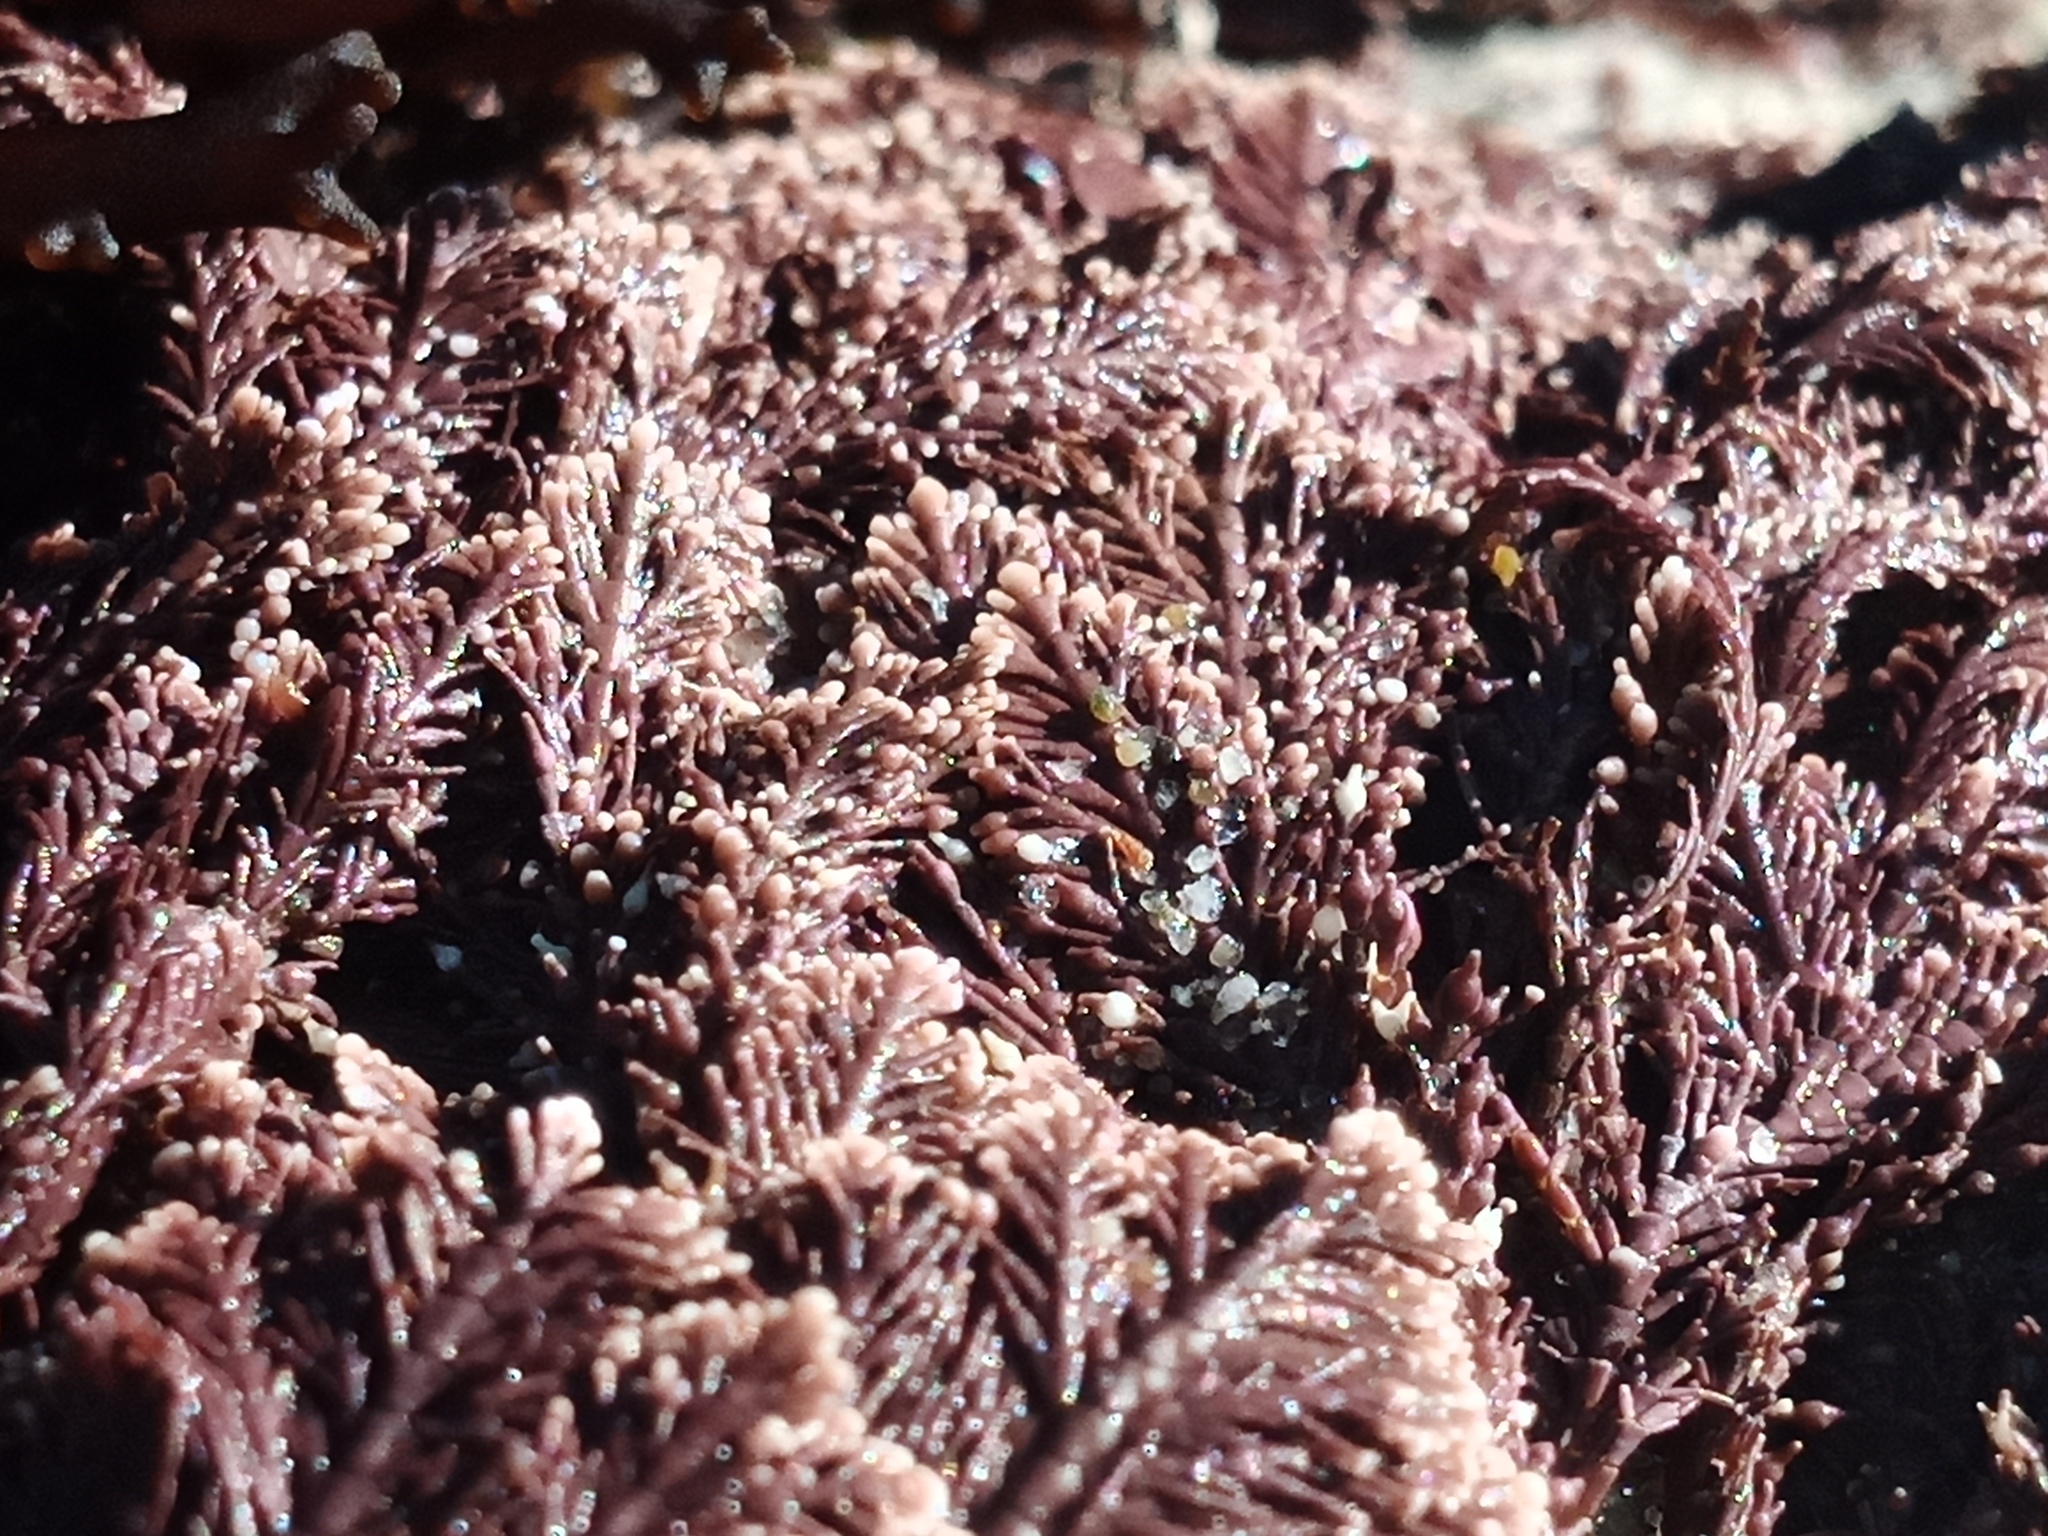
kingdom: Plantae
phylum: Rhodophyta
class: Florideophyceae
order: Corallinales
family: Corallinaceae
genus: Corallina
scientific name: Corallina officinalis
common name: Coral weed
